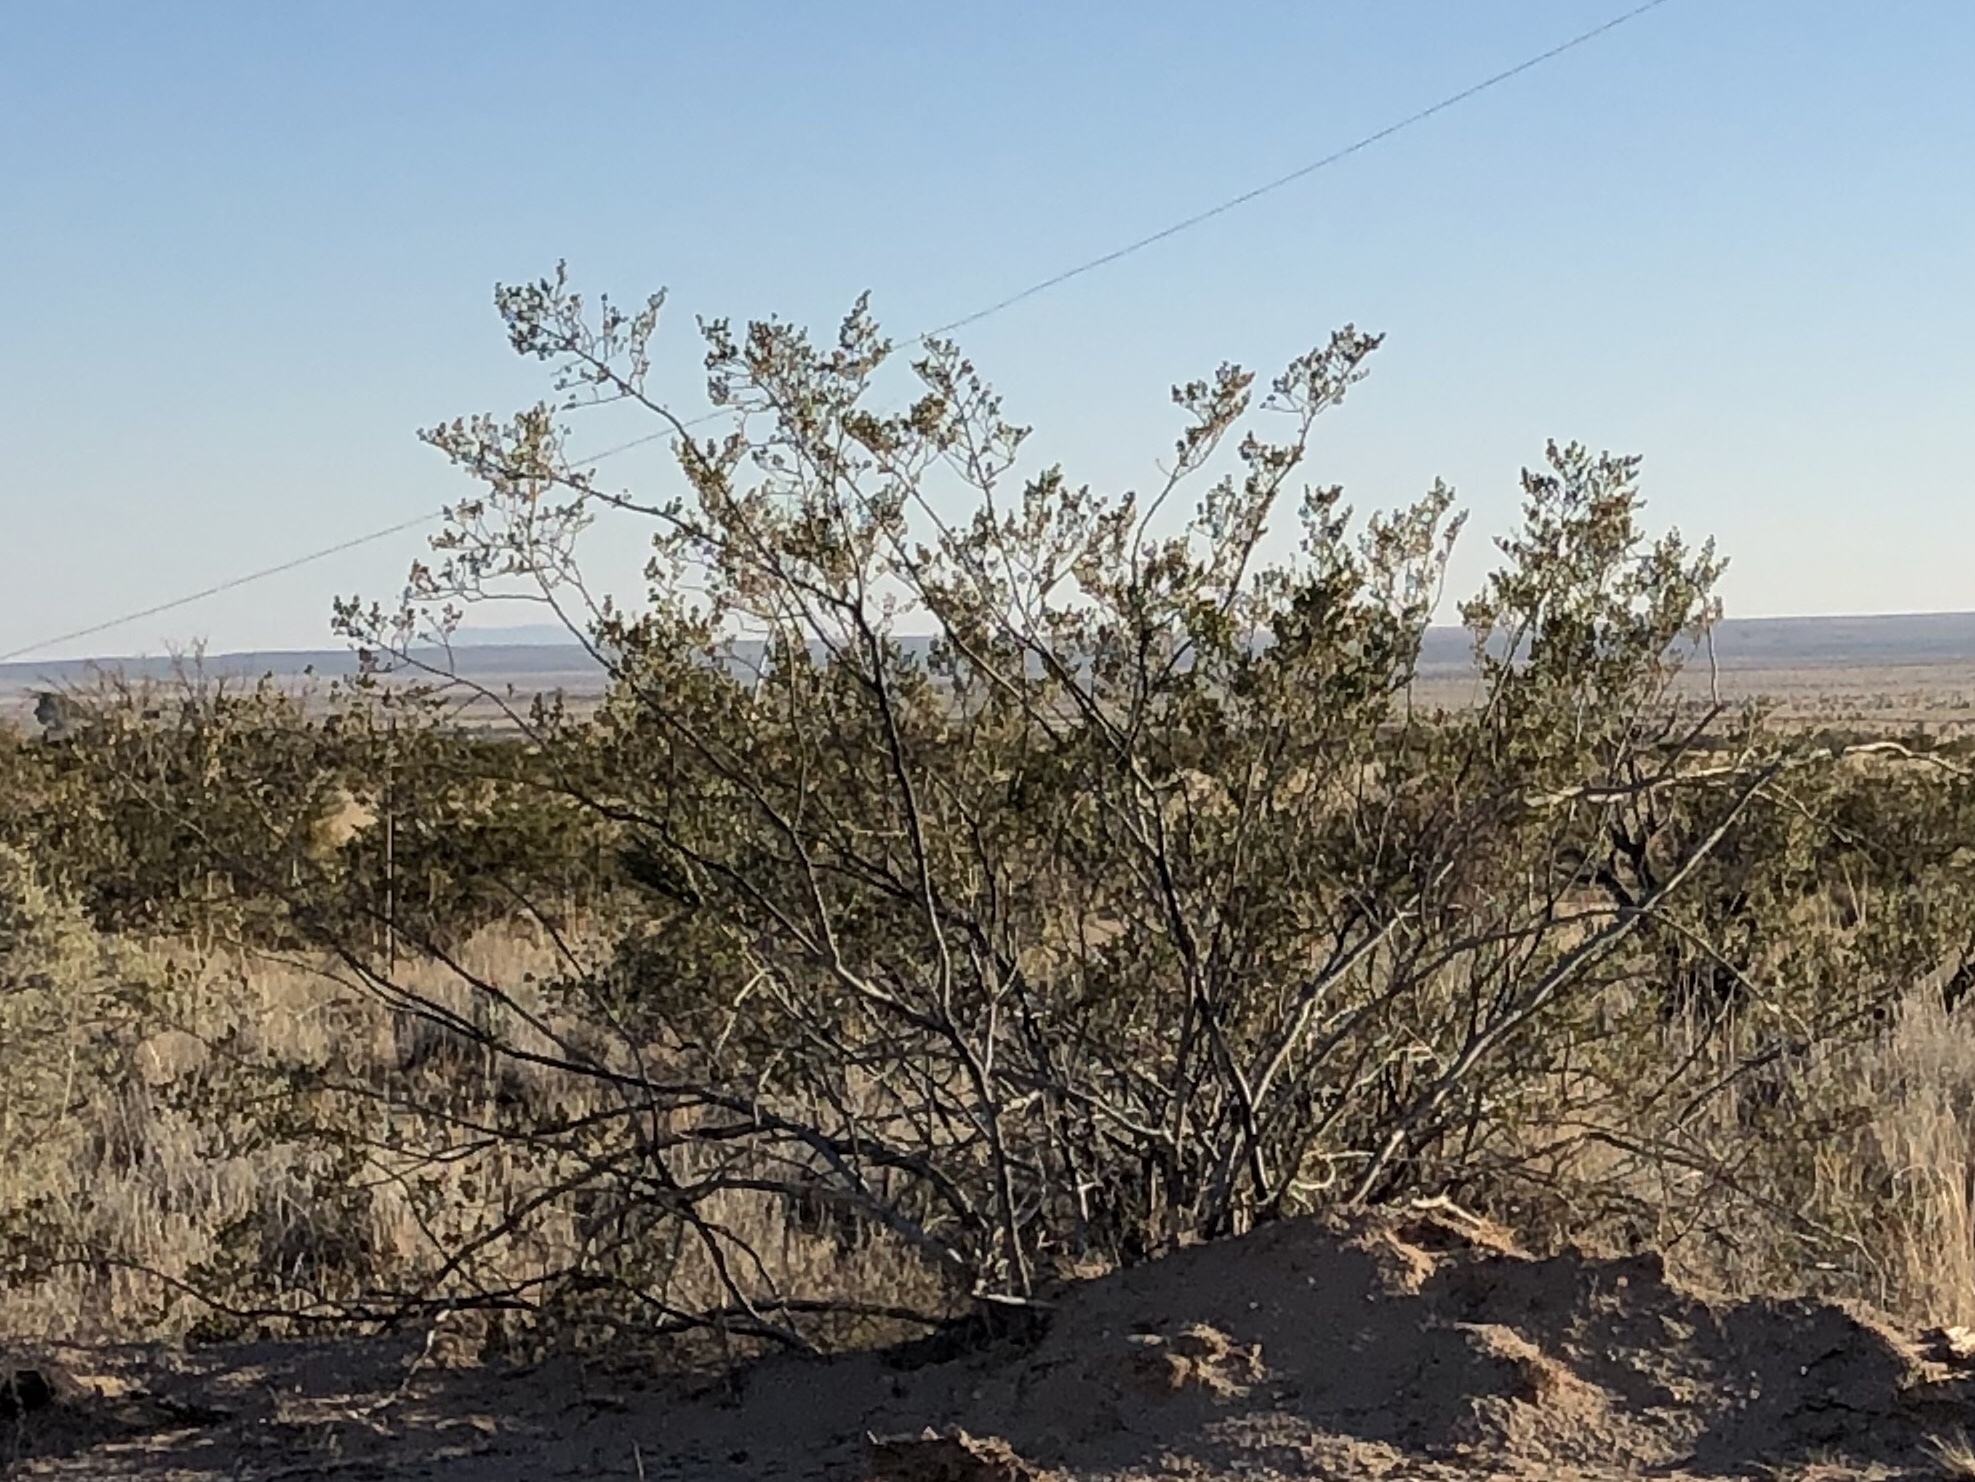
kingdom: Plantae
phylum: Tracheophyta
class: Magnoliopsida
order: Zygophyllales
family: Zygophyllaceae
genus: Larrea
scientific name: Larrea tridentata
